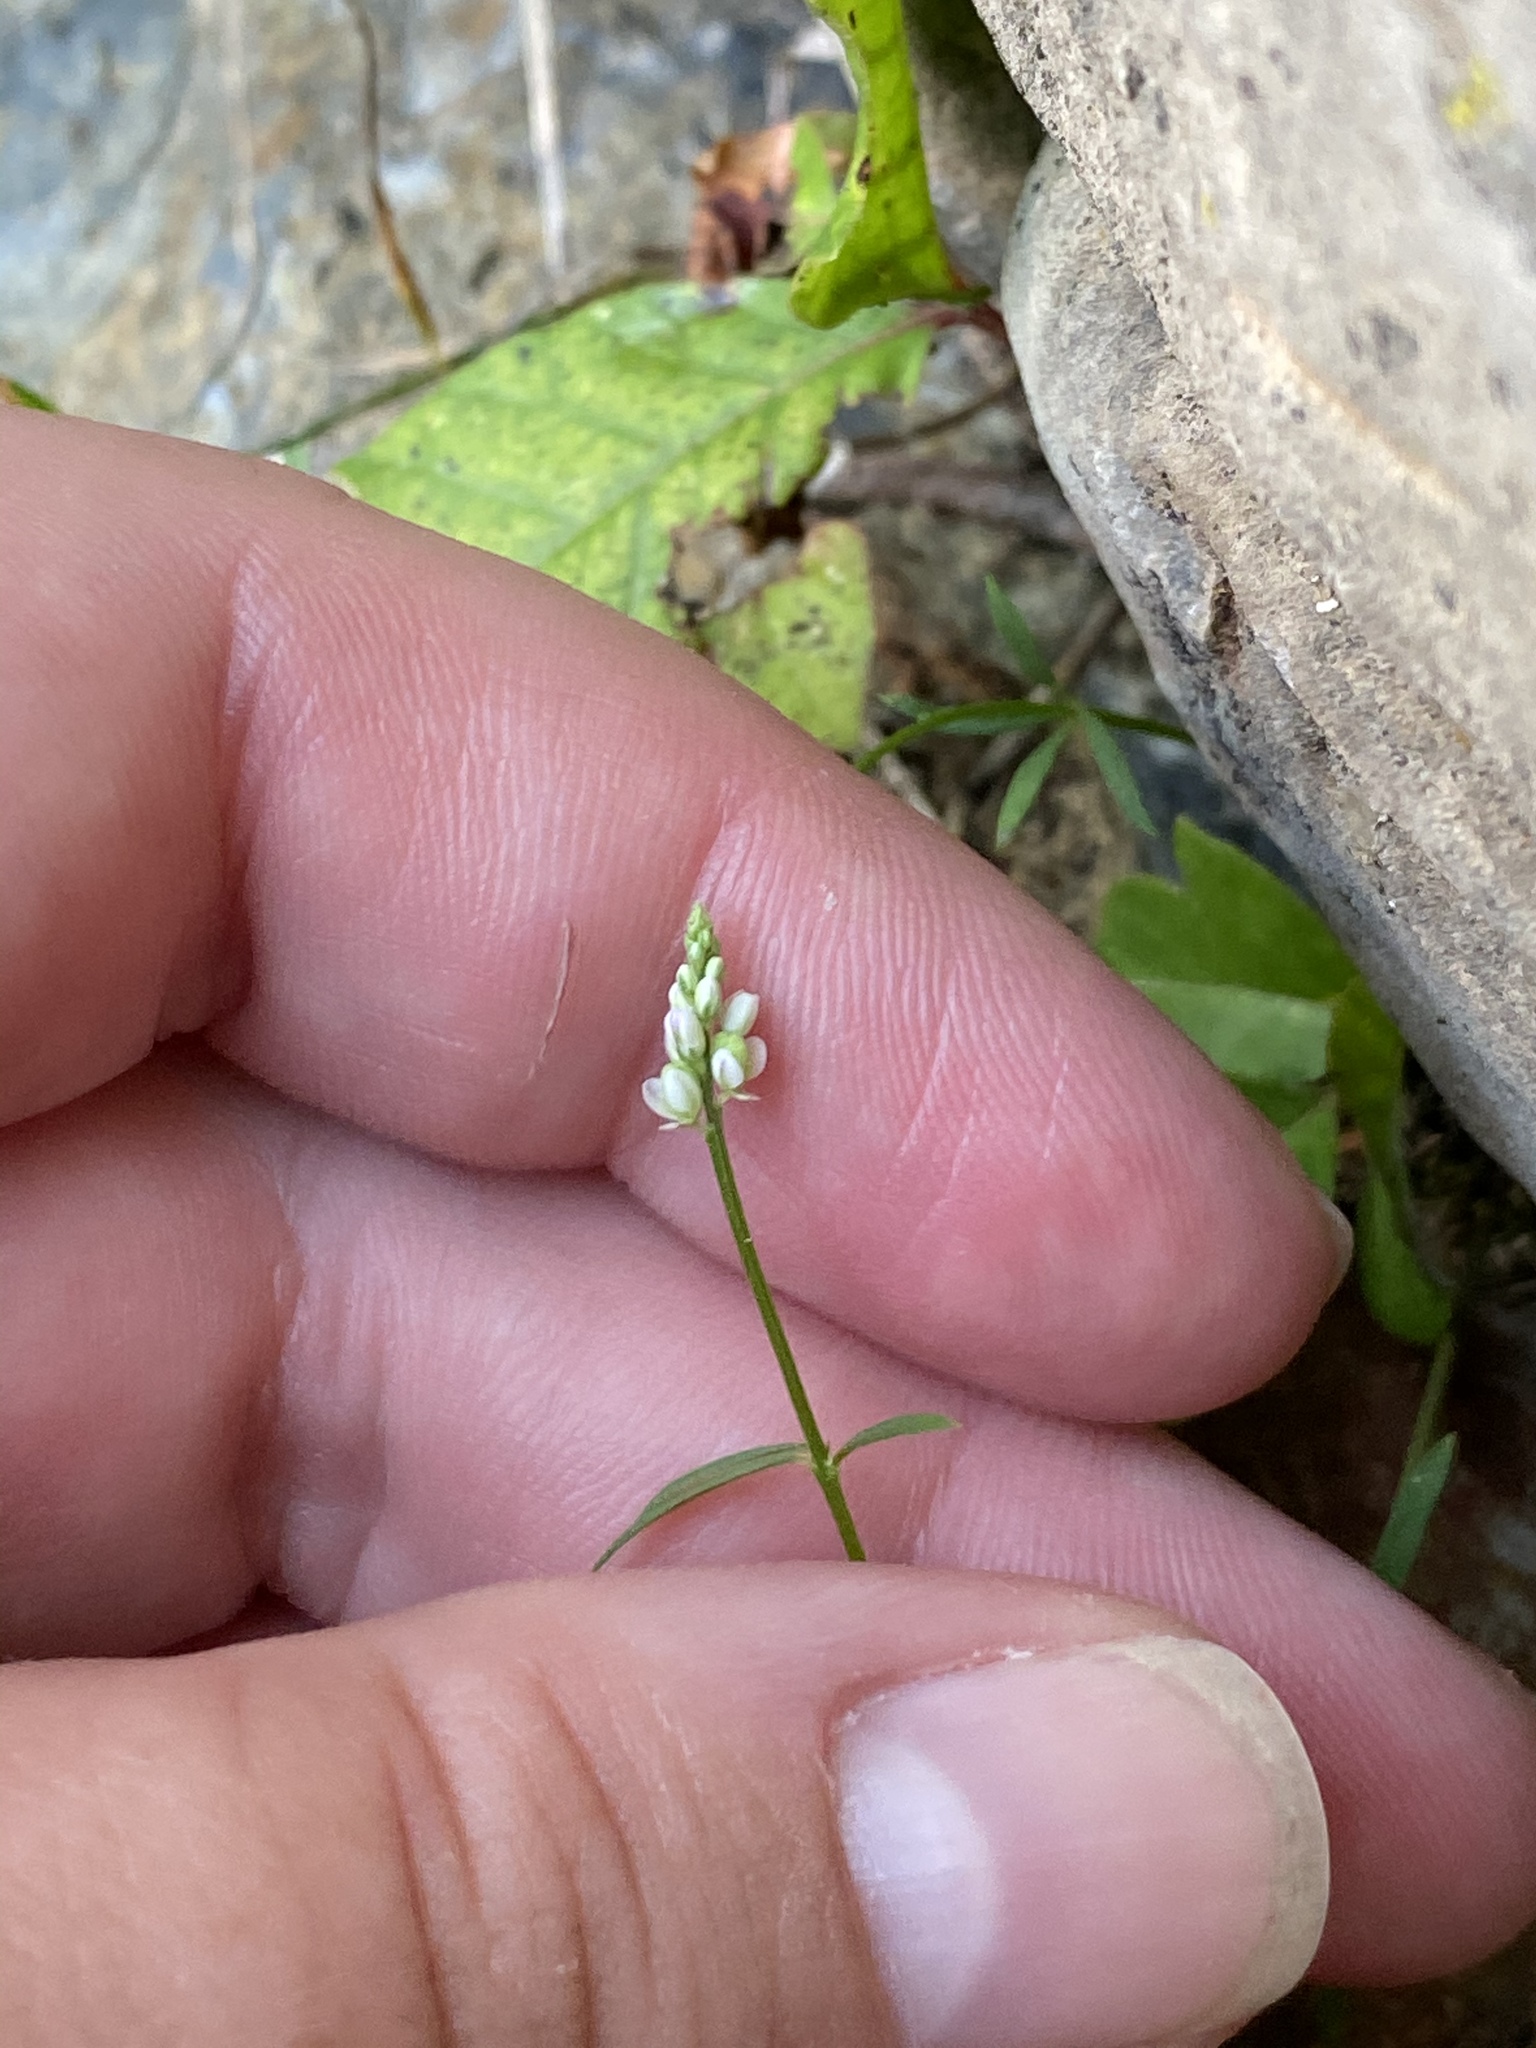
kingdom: Plantae
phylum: Tracheophyta
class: Magnoliopsida
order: Fabales
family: Polygalaceae
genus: Polygala
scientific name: Polygala verticillata
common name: Whorl milkwort
